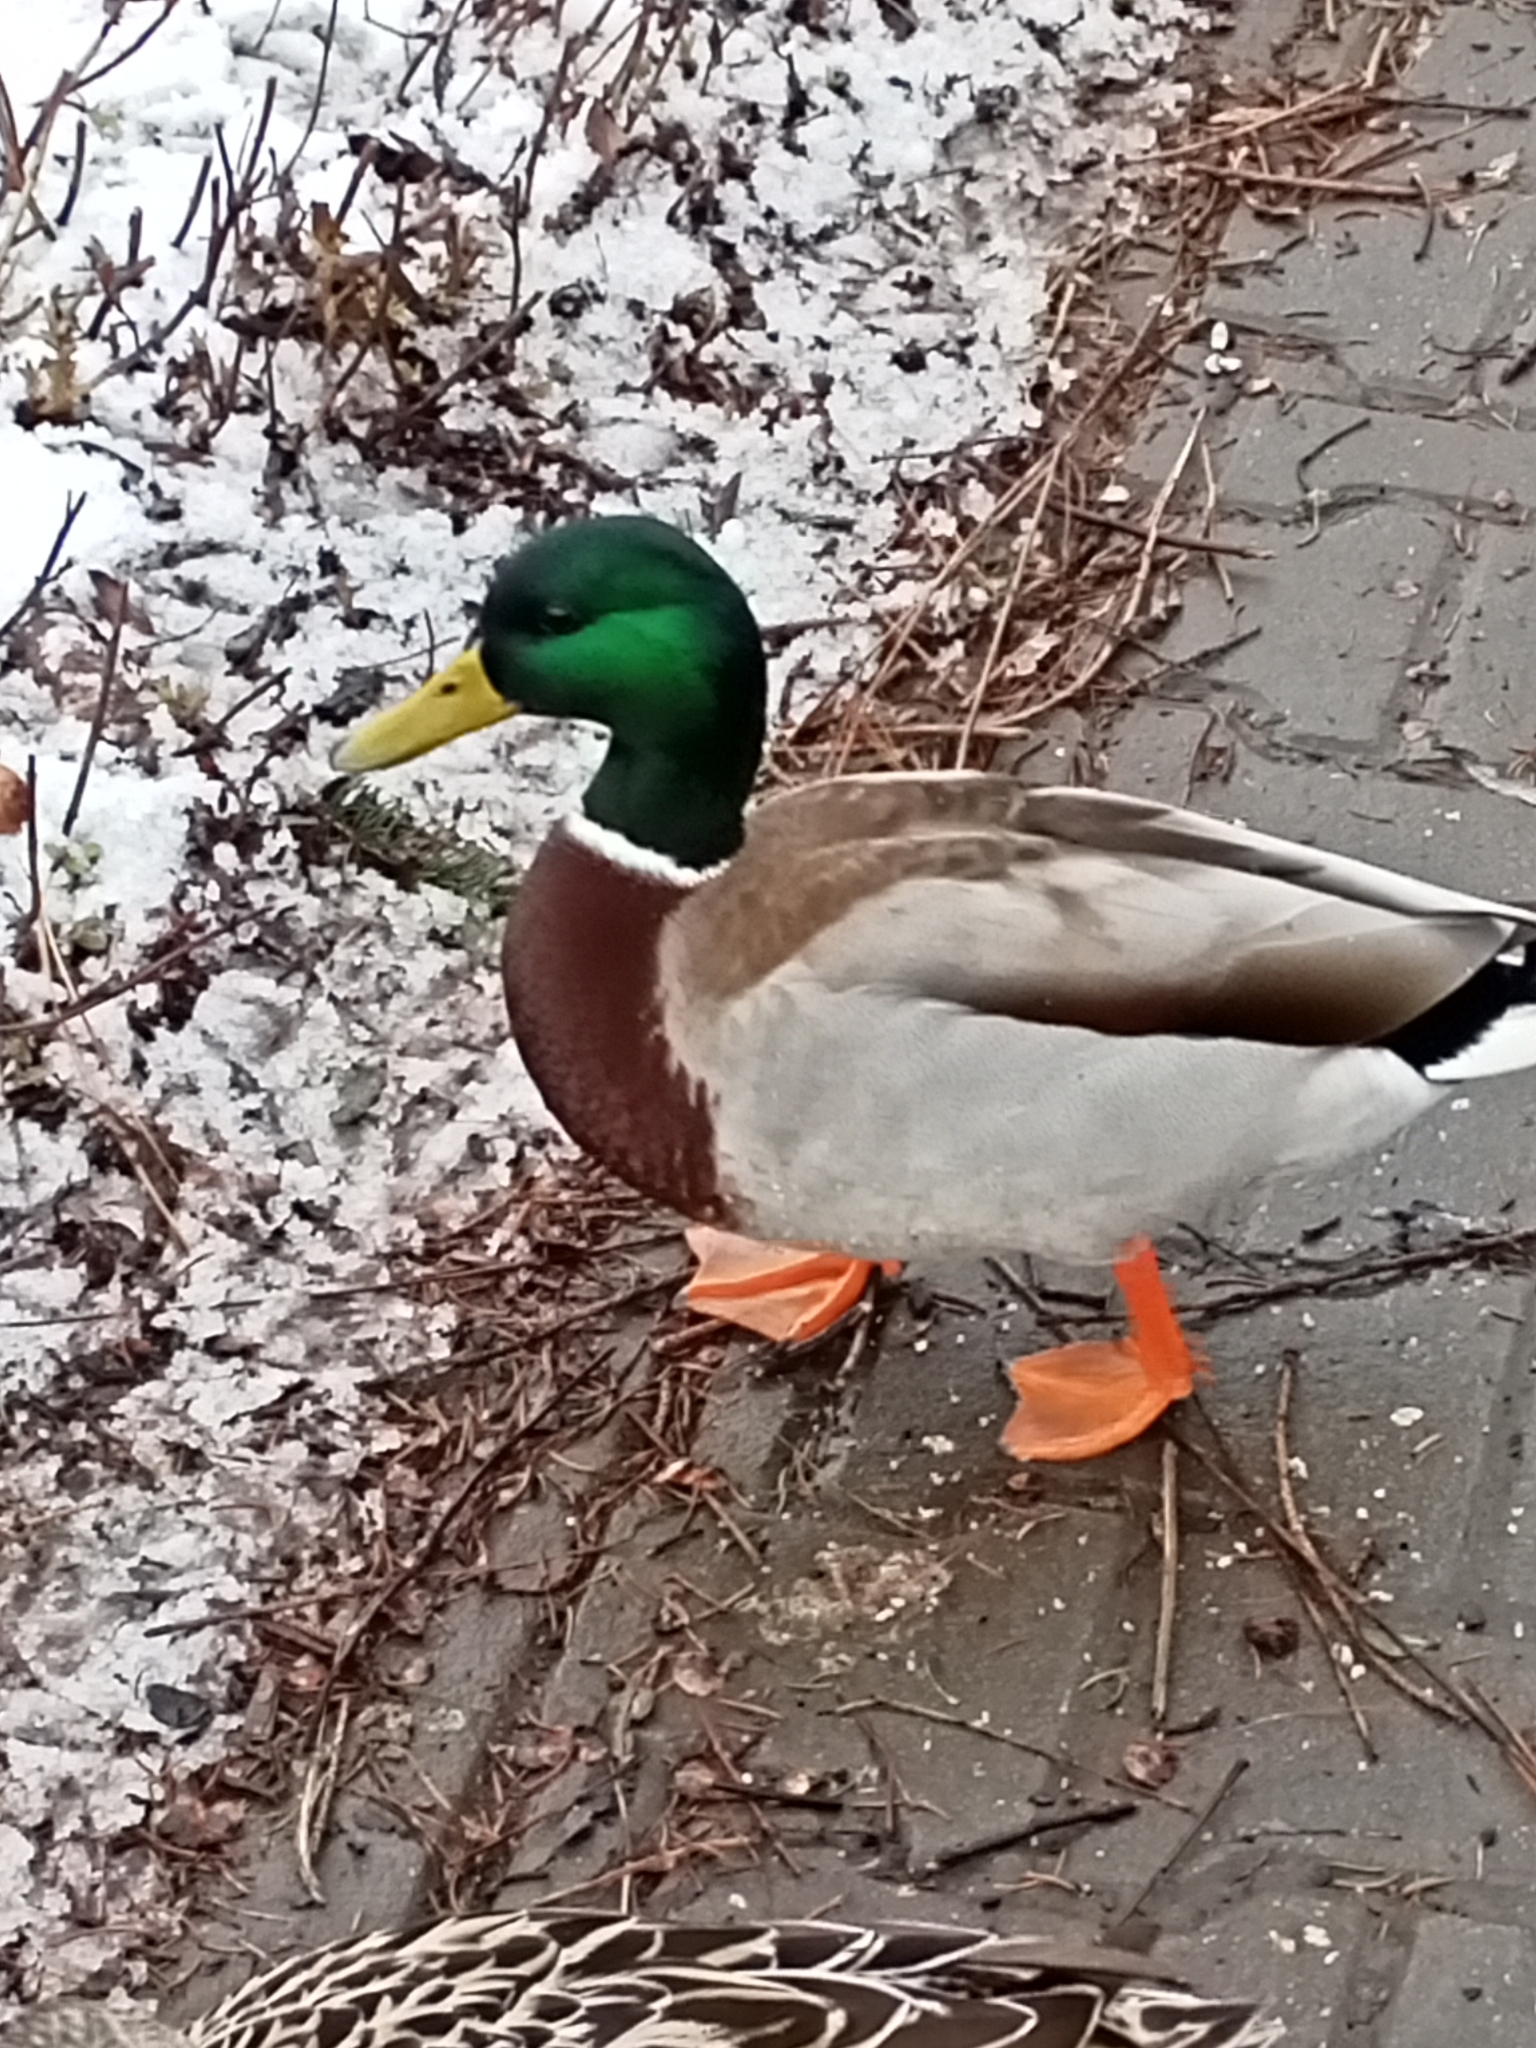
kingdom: Animalia
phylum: Chordata
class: Aves
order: Anseriformes
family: Anatidae
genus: Anas
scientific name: Anas platyrhynchos
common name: Mallard
